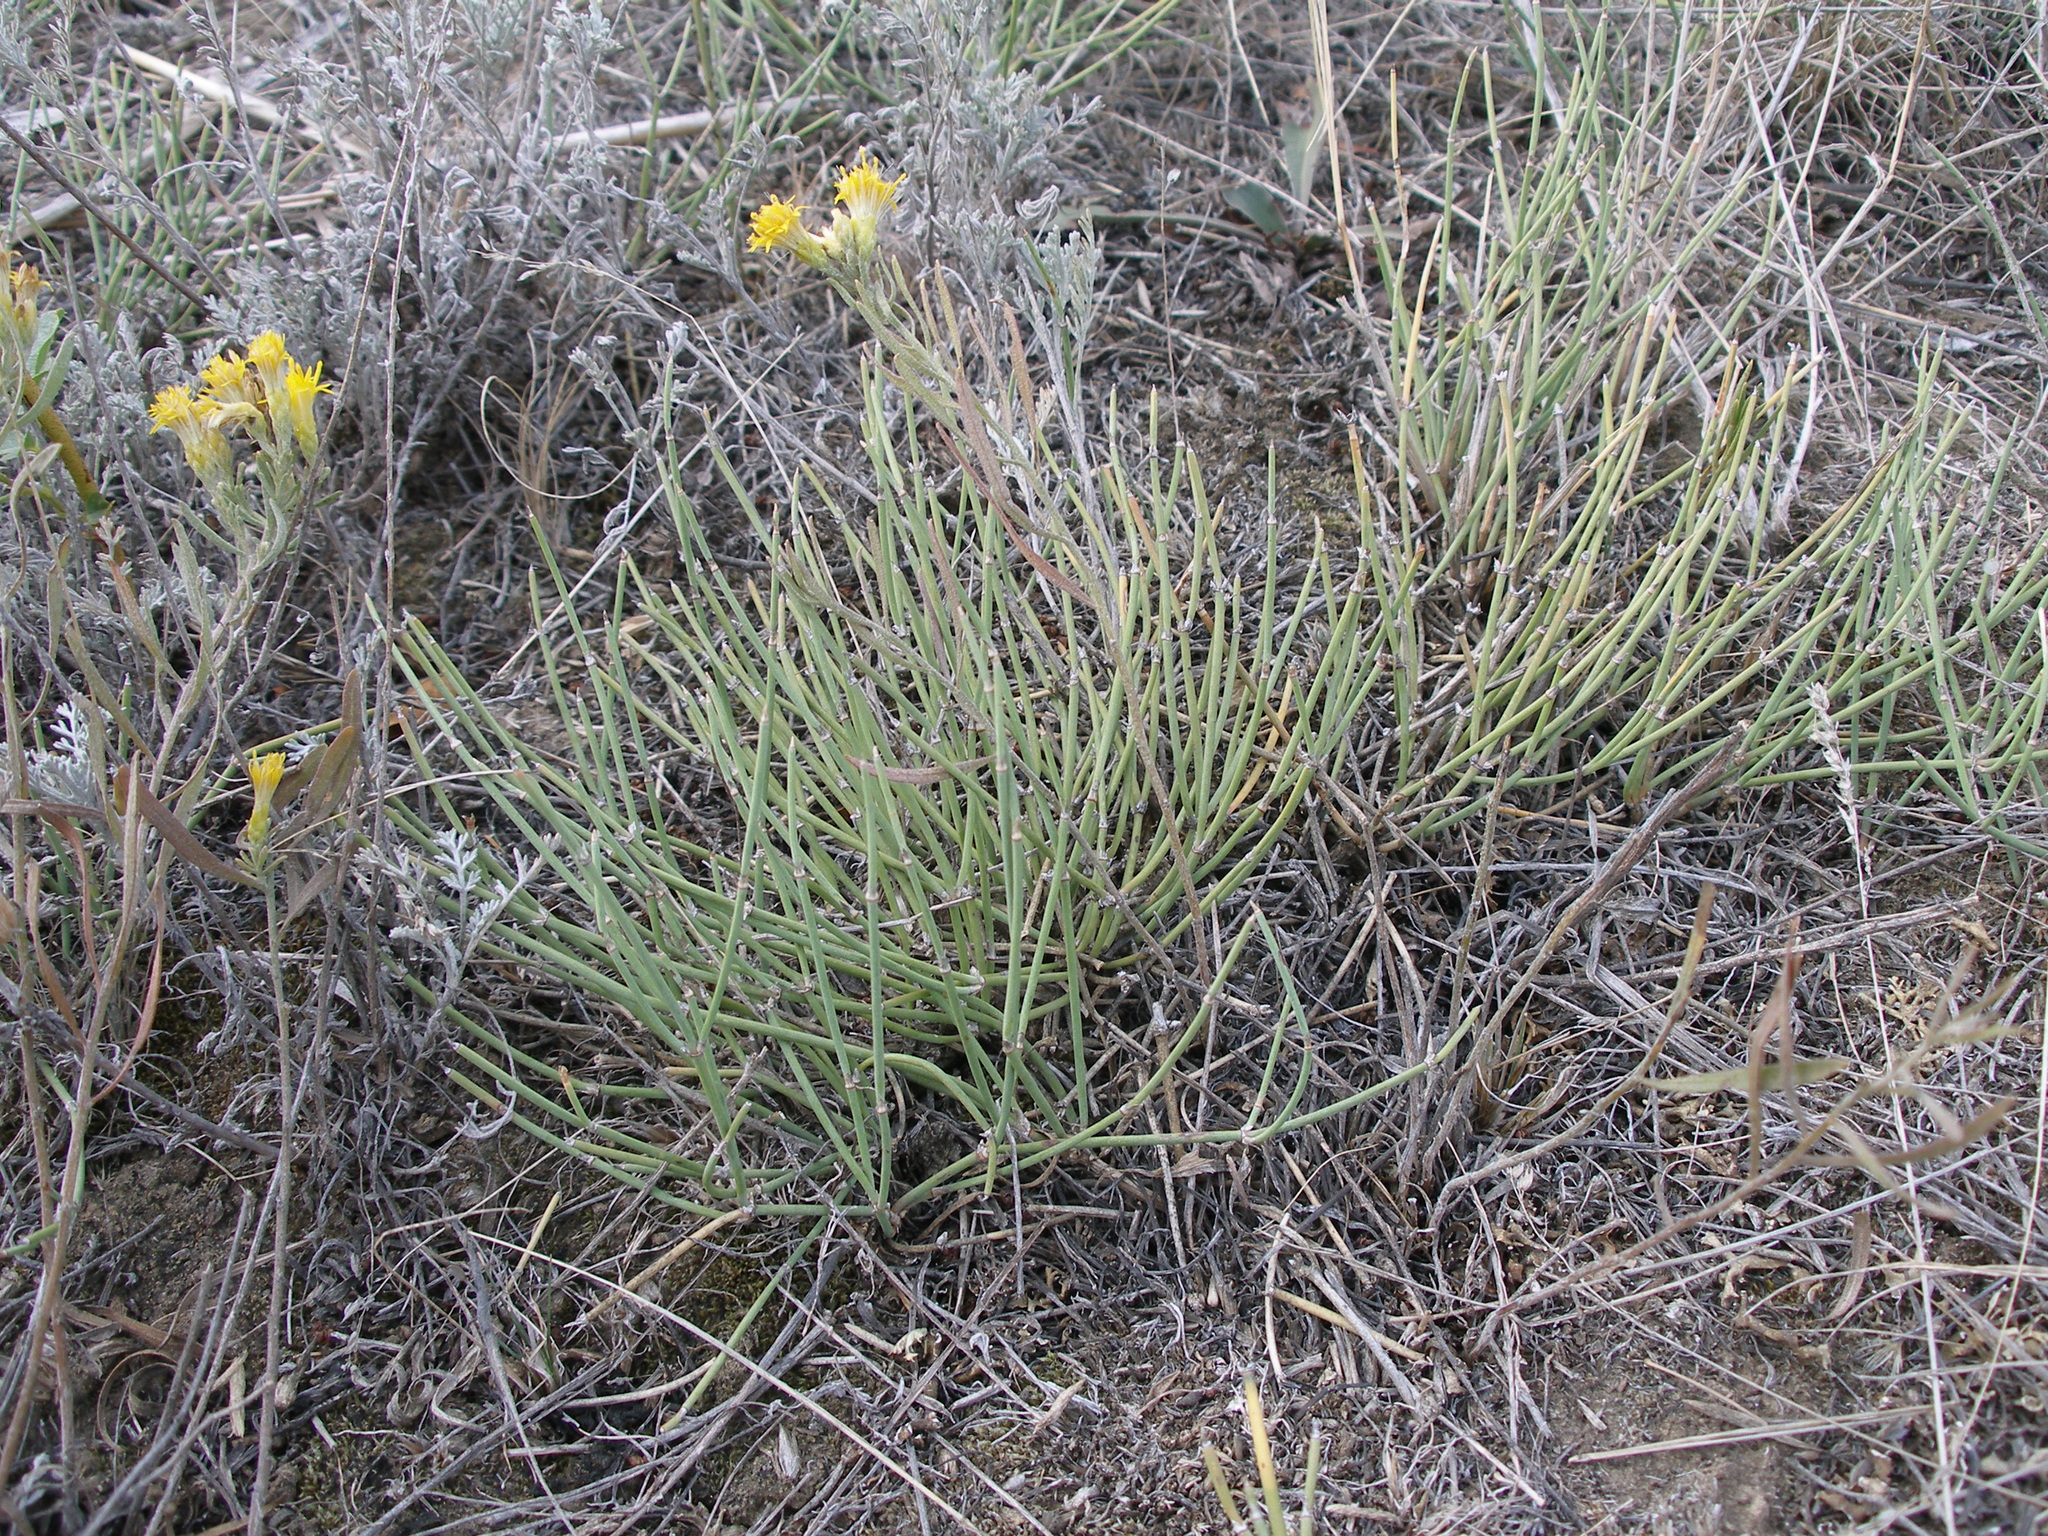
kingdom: Plantae
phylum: Tracheophyta
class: Gnetopsida
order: Ephedrales
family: Ephedraceae
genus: Ephedra
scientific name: Ephedra distachya
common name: Sea grape
